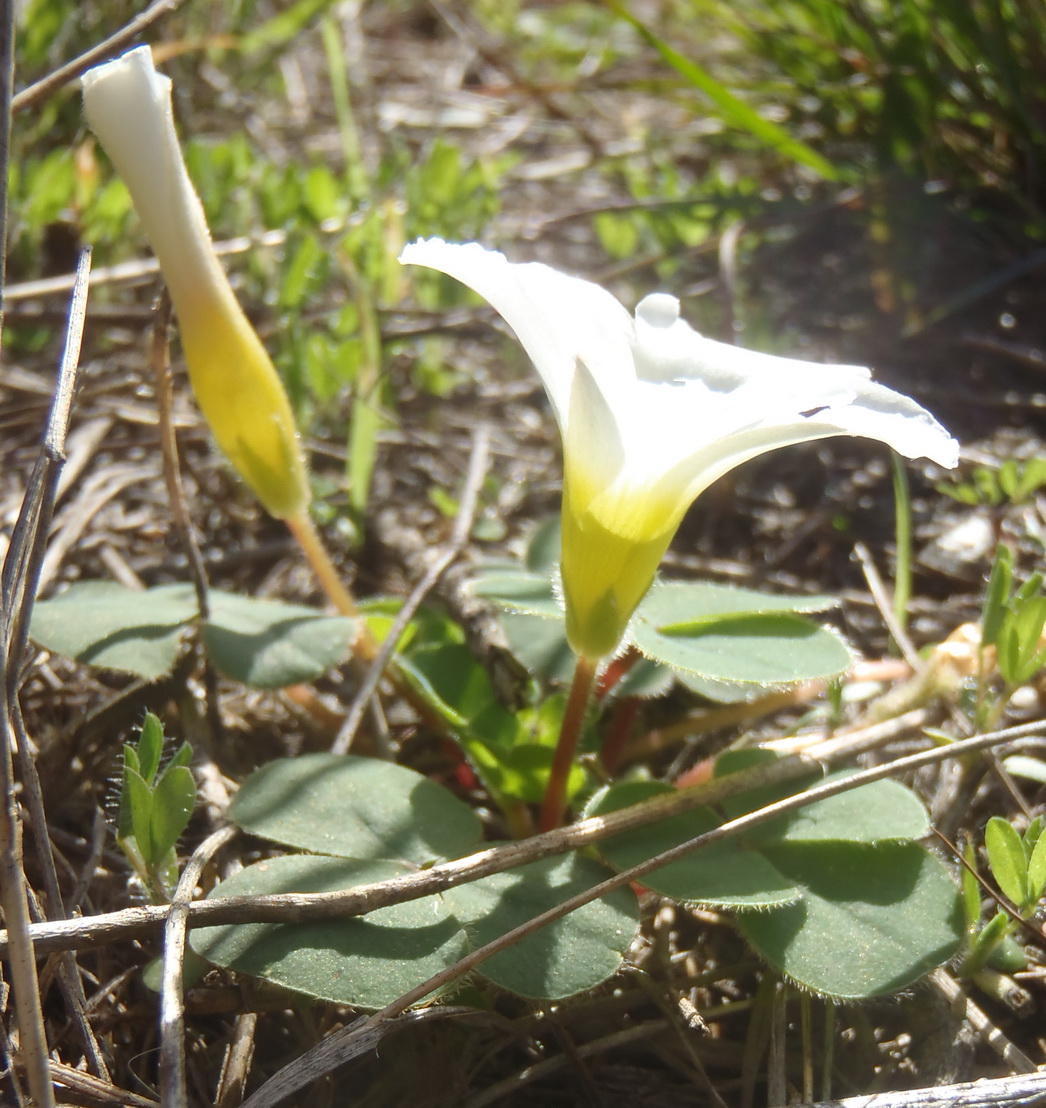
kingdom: Plantae
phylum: Tracheophyta
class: Magnoliopsida
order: Oxalidales
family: Oxalidaceae
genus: Oxalis
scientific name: Oxalis purpurea
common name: Purple woodsorrel
